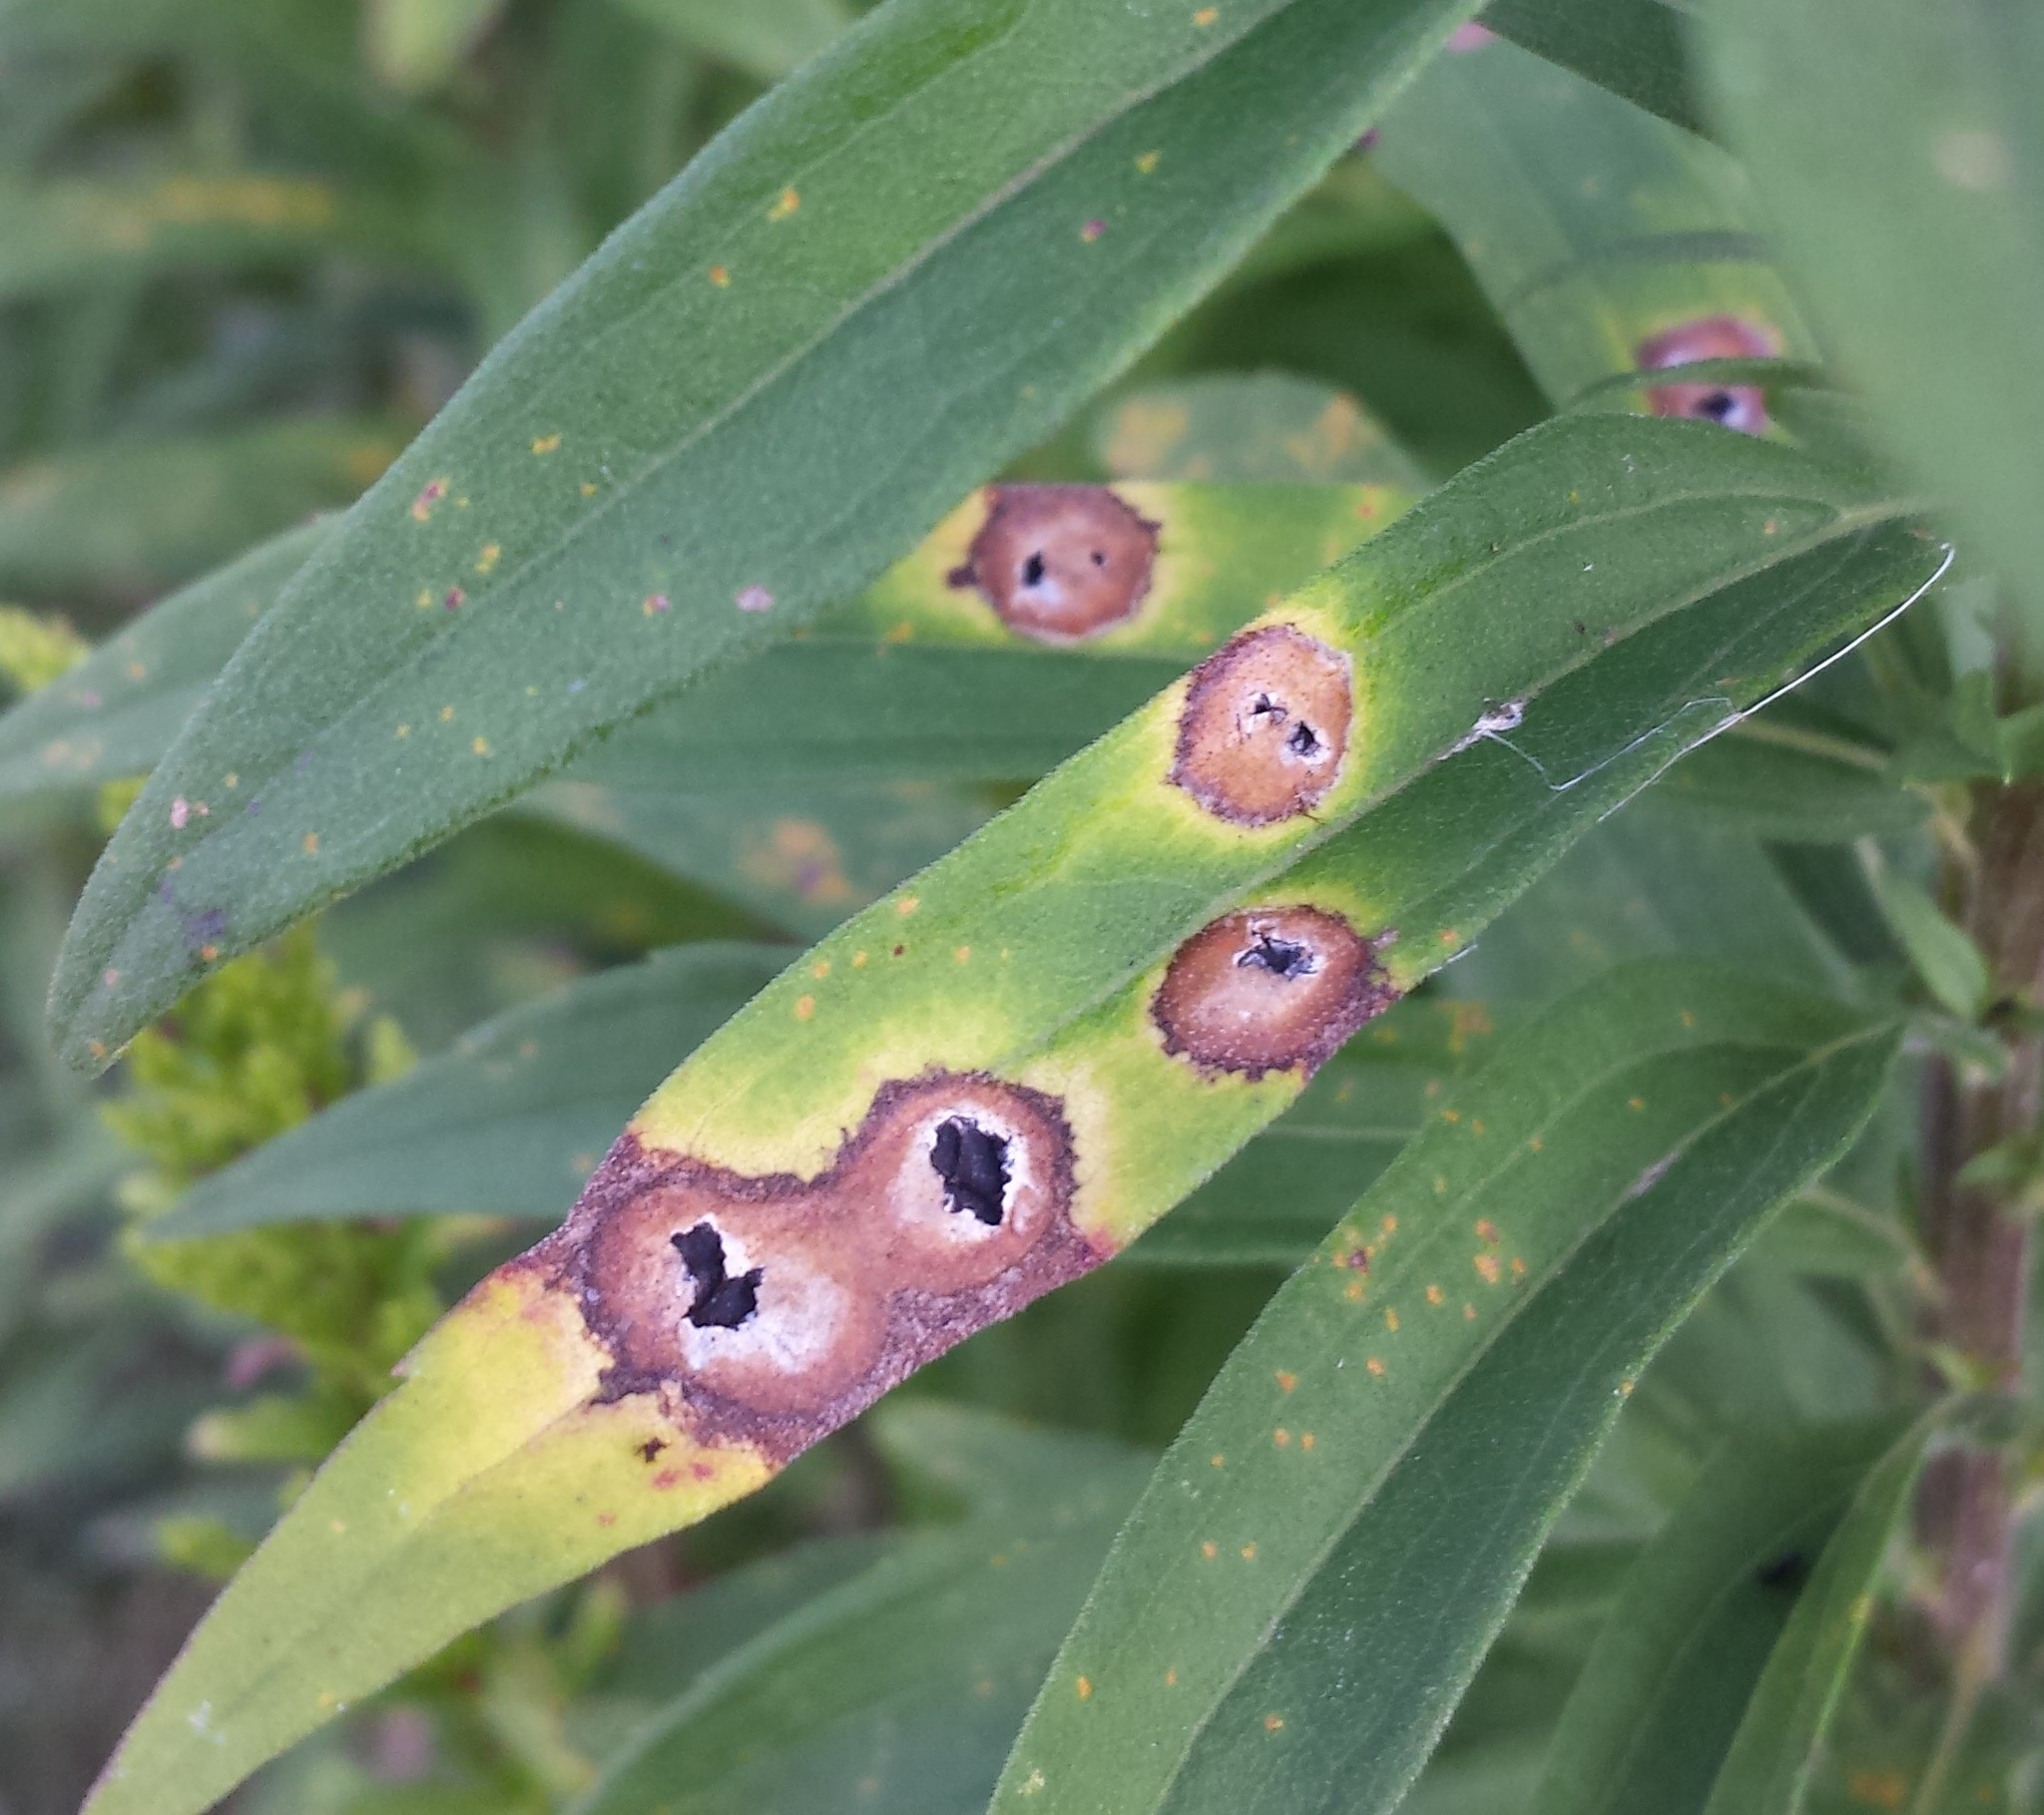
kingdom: Animalia
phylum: Arthropoda
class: Insecta
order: Diptera
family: Cecidomyiidae
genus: Asteromyia
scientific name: Asteromyia carbonifera
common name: Carbonifera goldenrod gall midge
